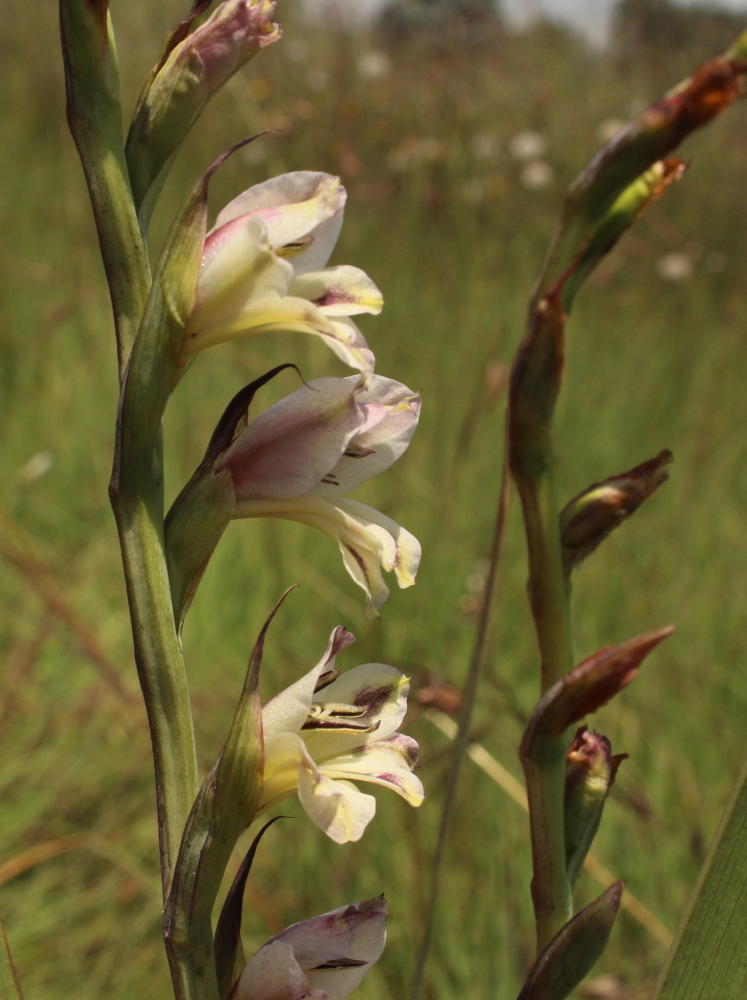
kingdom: Plantae
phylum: Tracheophyta
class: Liliopsida
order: Asparagales
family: Iridaceae
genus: Gladiolus
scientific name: Gladiolus crassifolius
